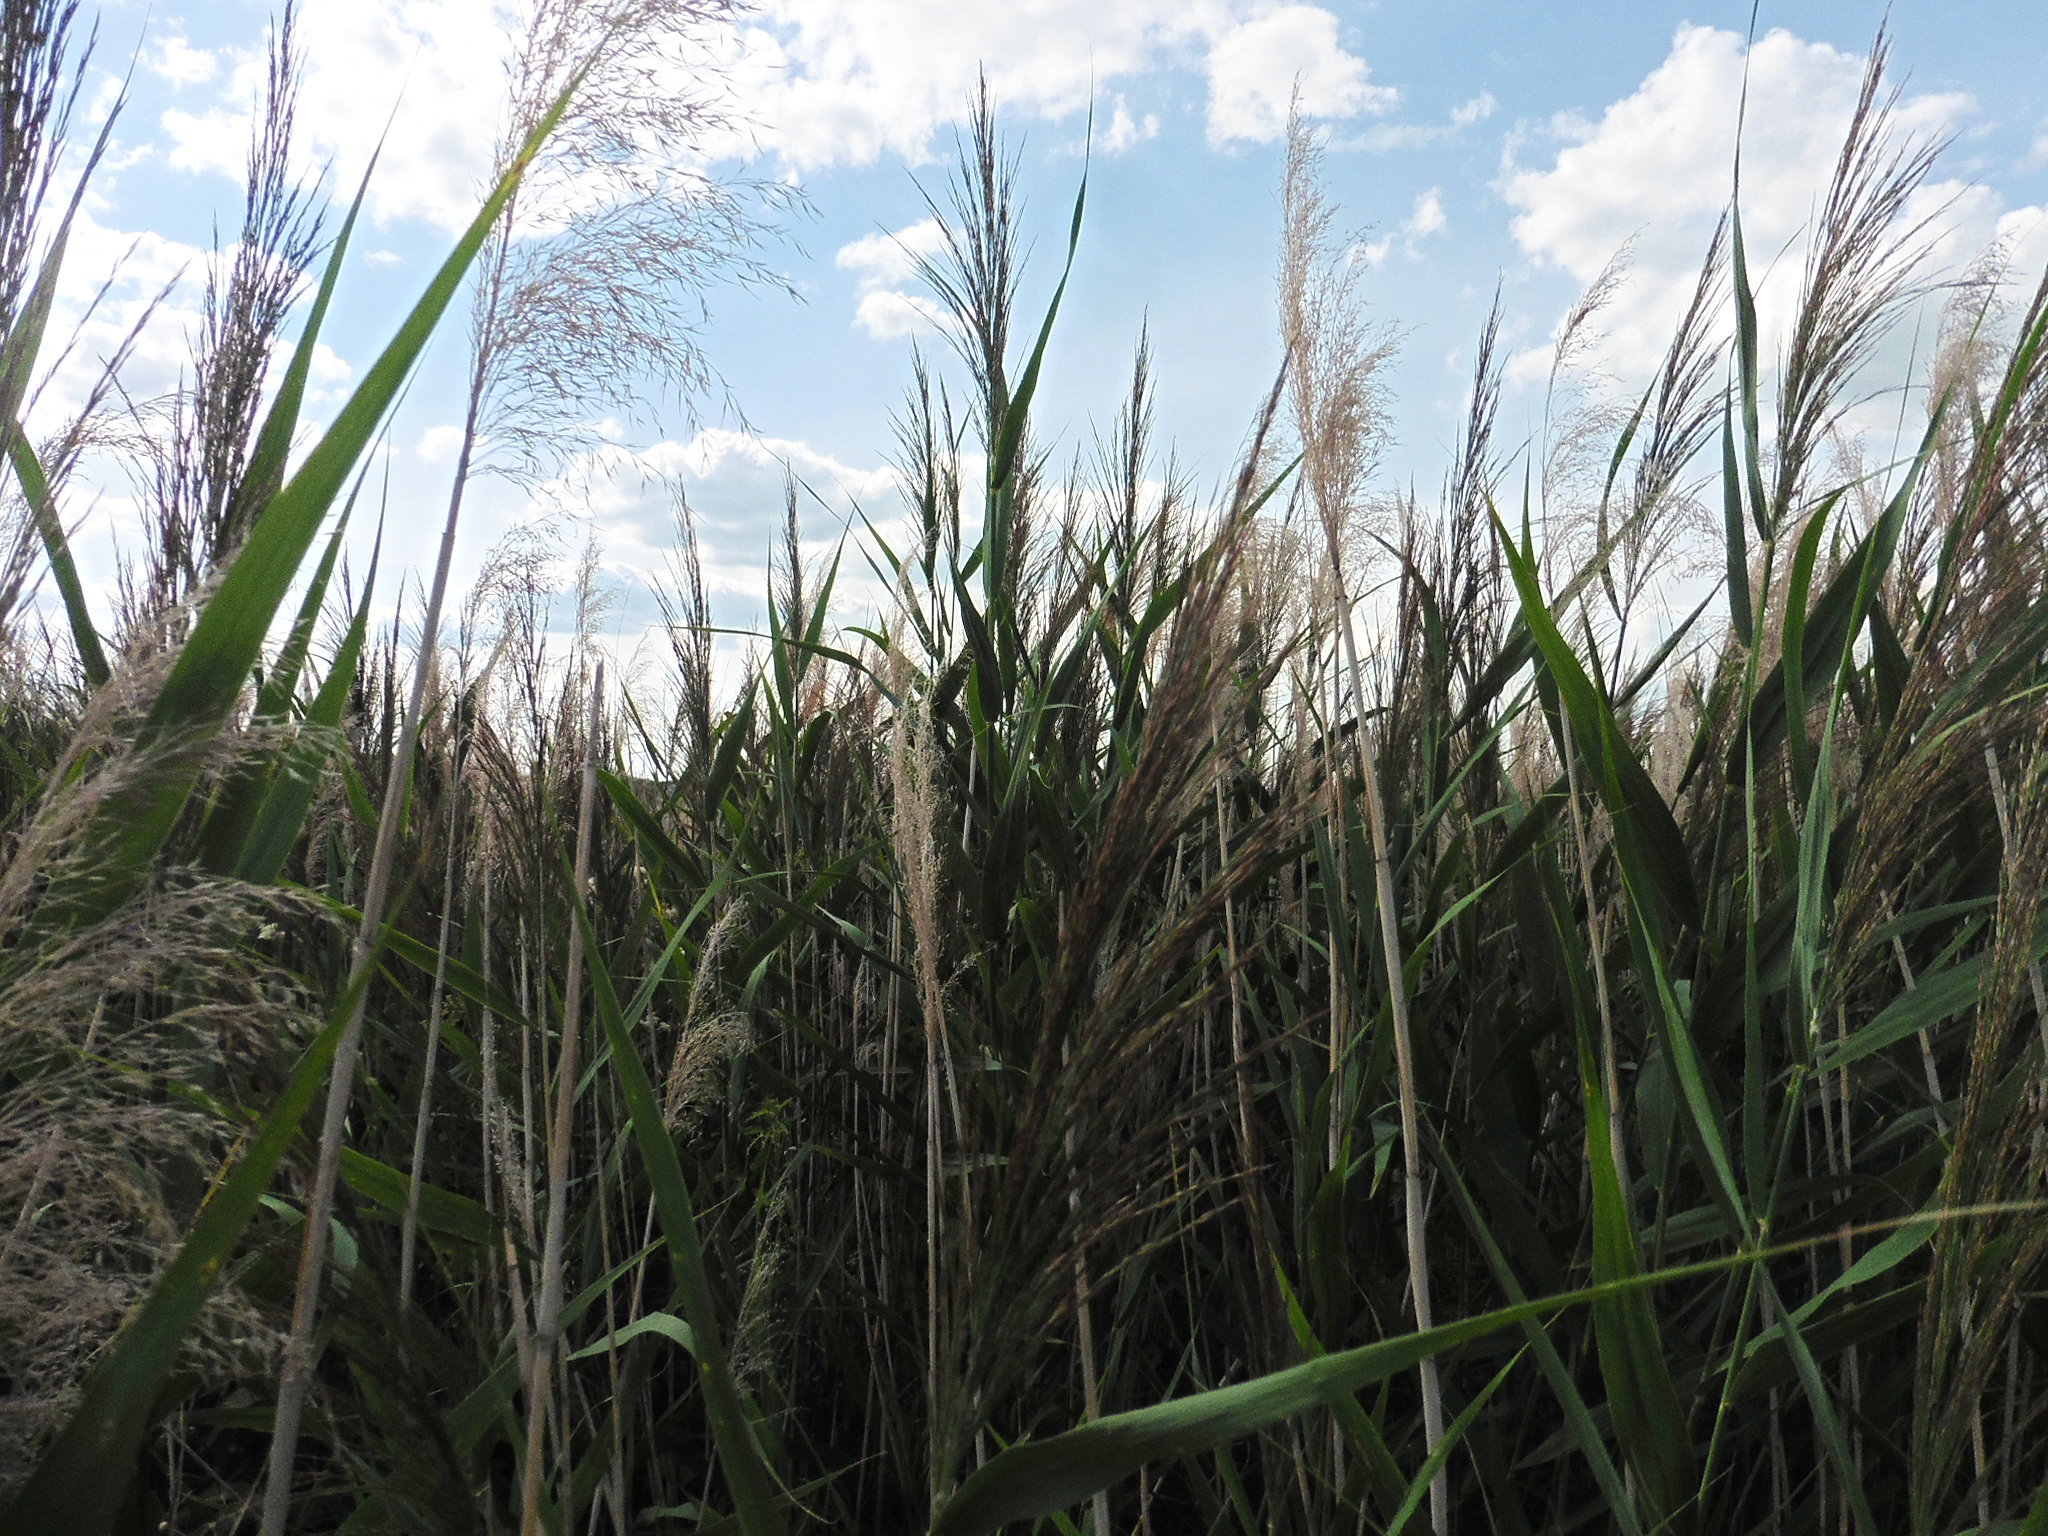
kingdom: Plantae
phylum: Tracheophyta
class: Liliopsida
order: Poales
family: Poaceae
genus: Phragmites
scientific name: Phragmites australis
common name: Common reed
